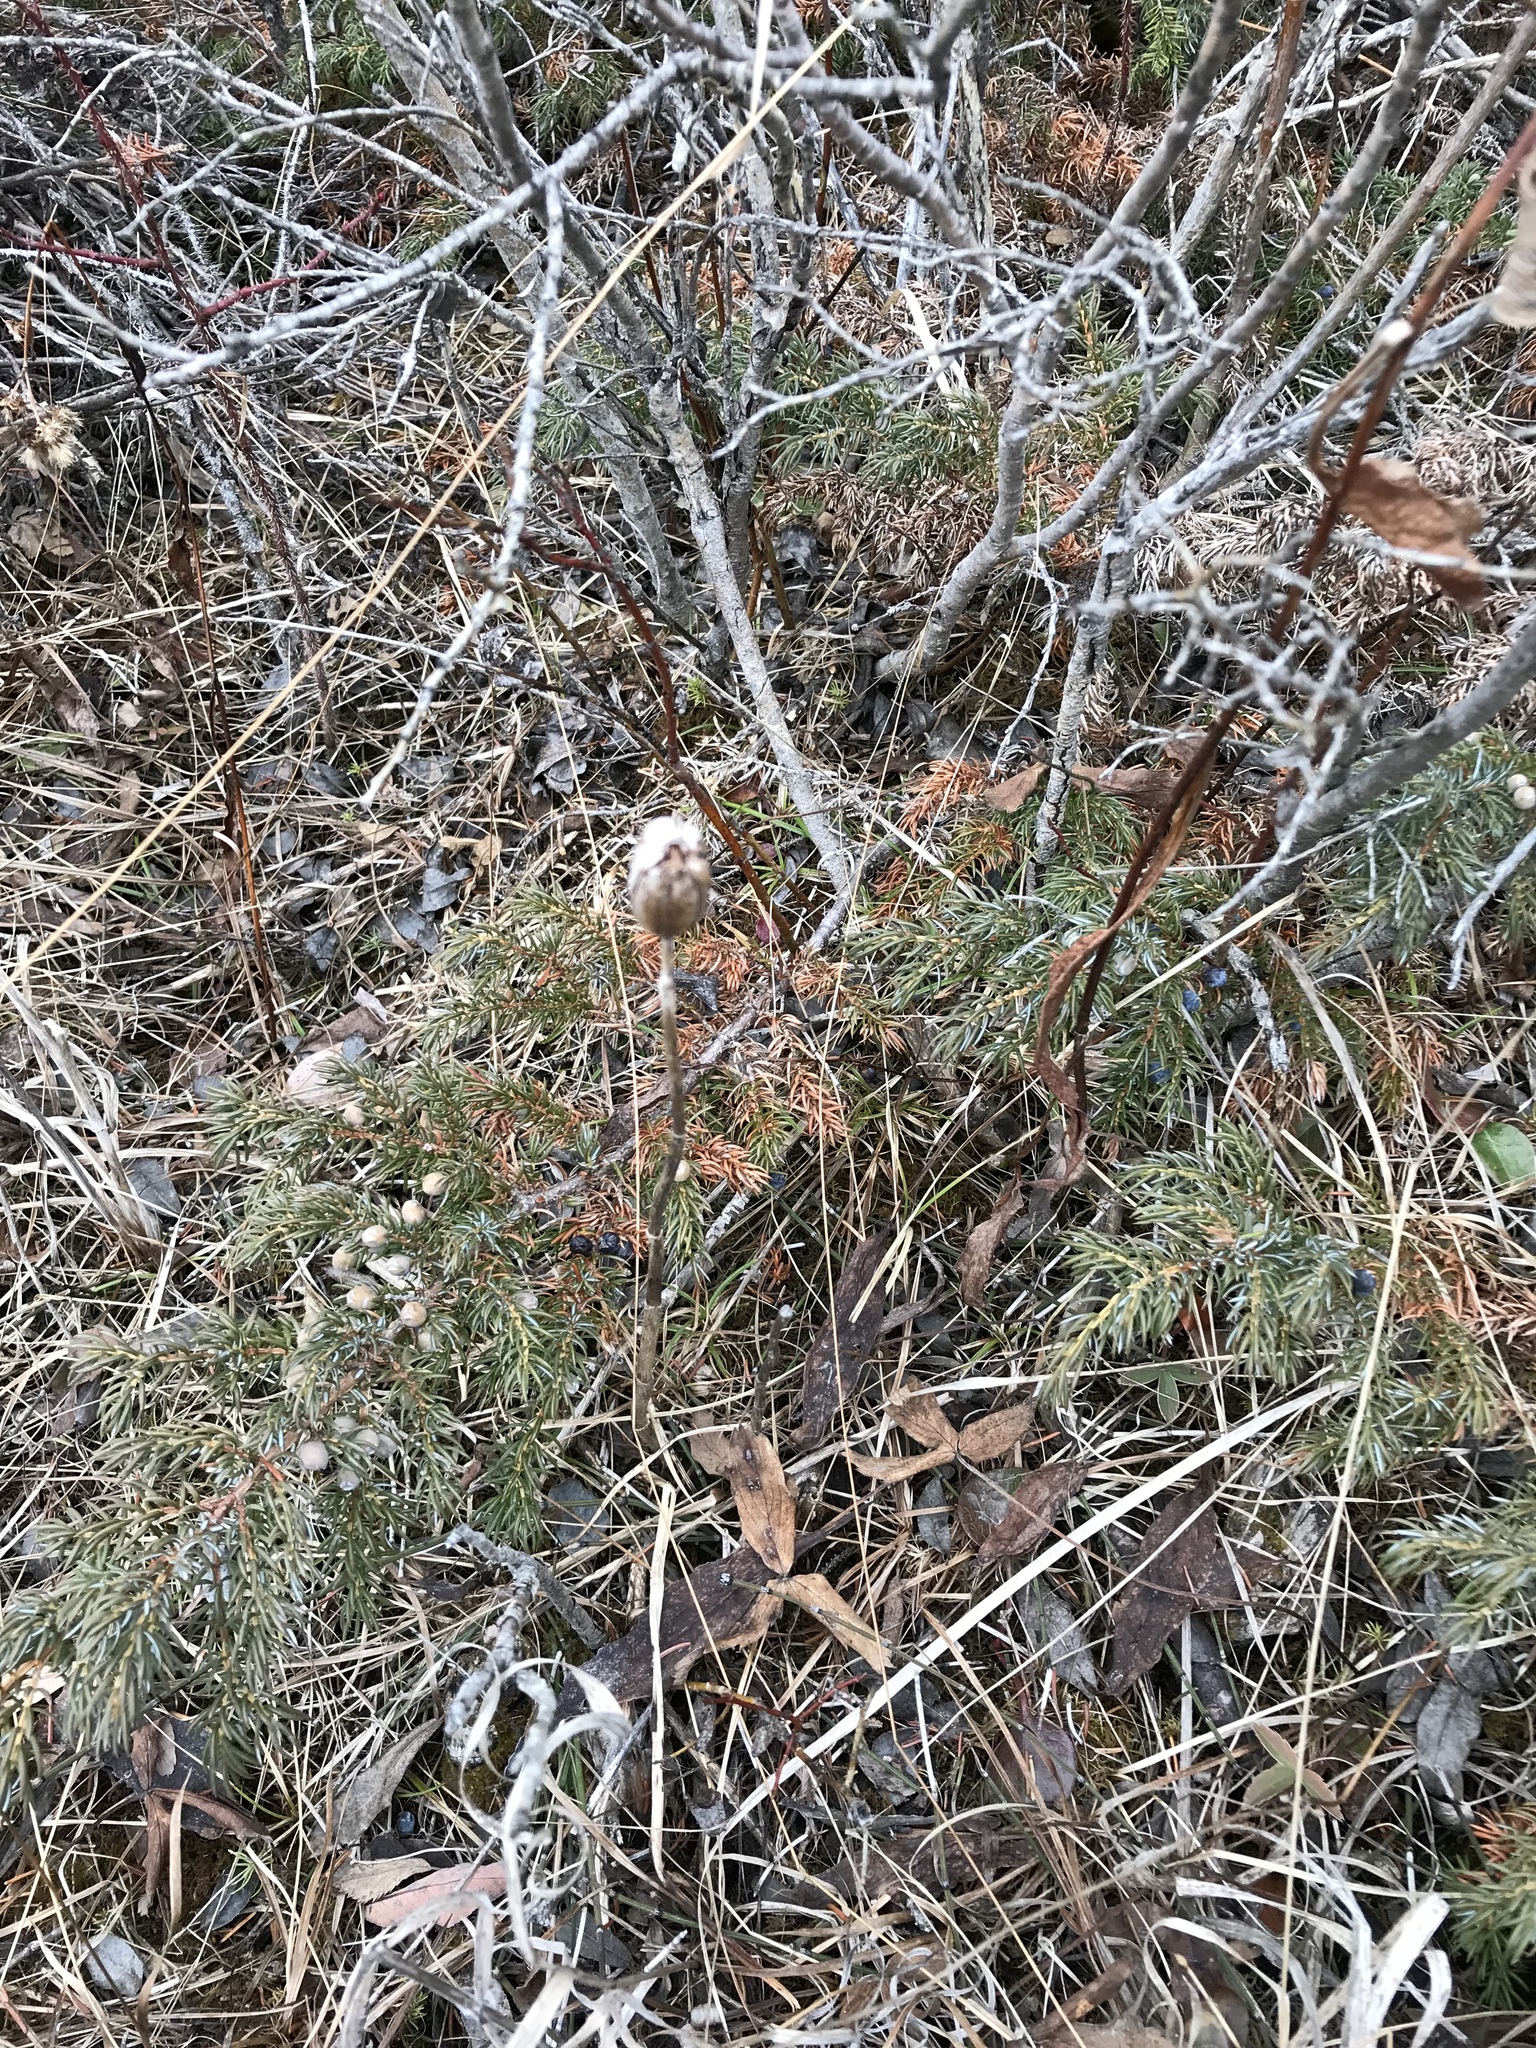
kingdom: Plantae
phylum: Tracheophyta
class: Liliopsida
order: Liliales
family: Liliaceae
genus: Lilium
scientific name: Lilium philadelphicum
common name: Red lily
